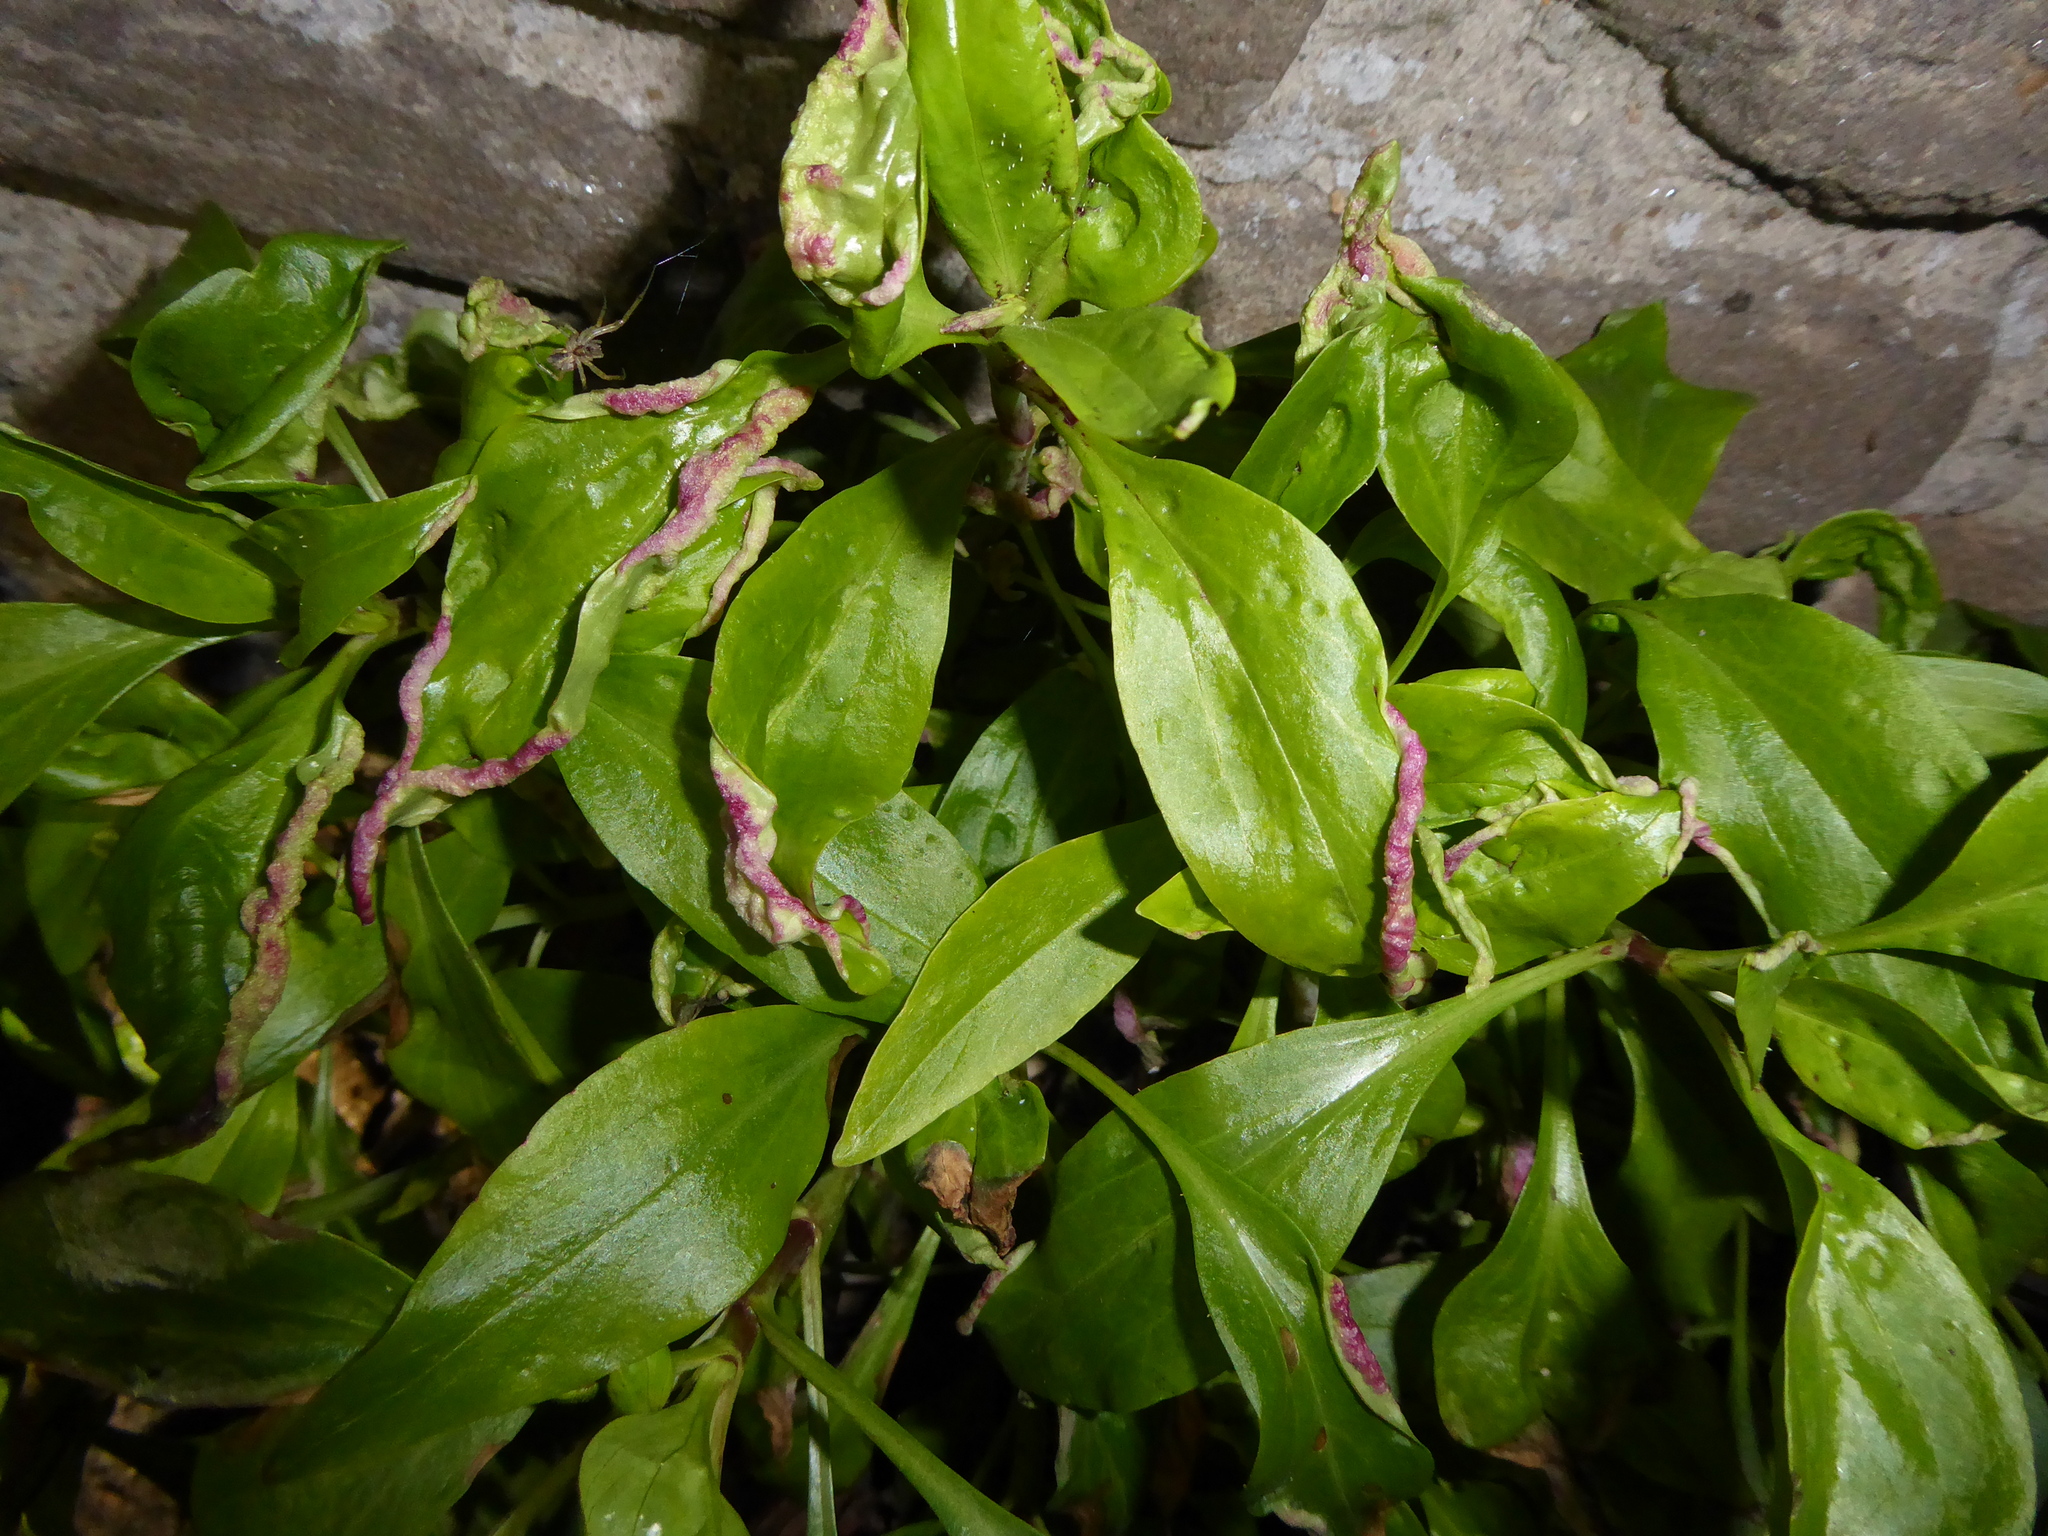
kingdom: Plantae
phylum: Tracheophyta
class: Magnoliopsida
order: Dipsacales
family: Caprifoliaceae
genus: Centranthus
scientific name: Centranthus ruber
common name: Red valerian
